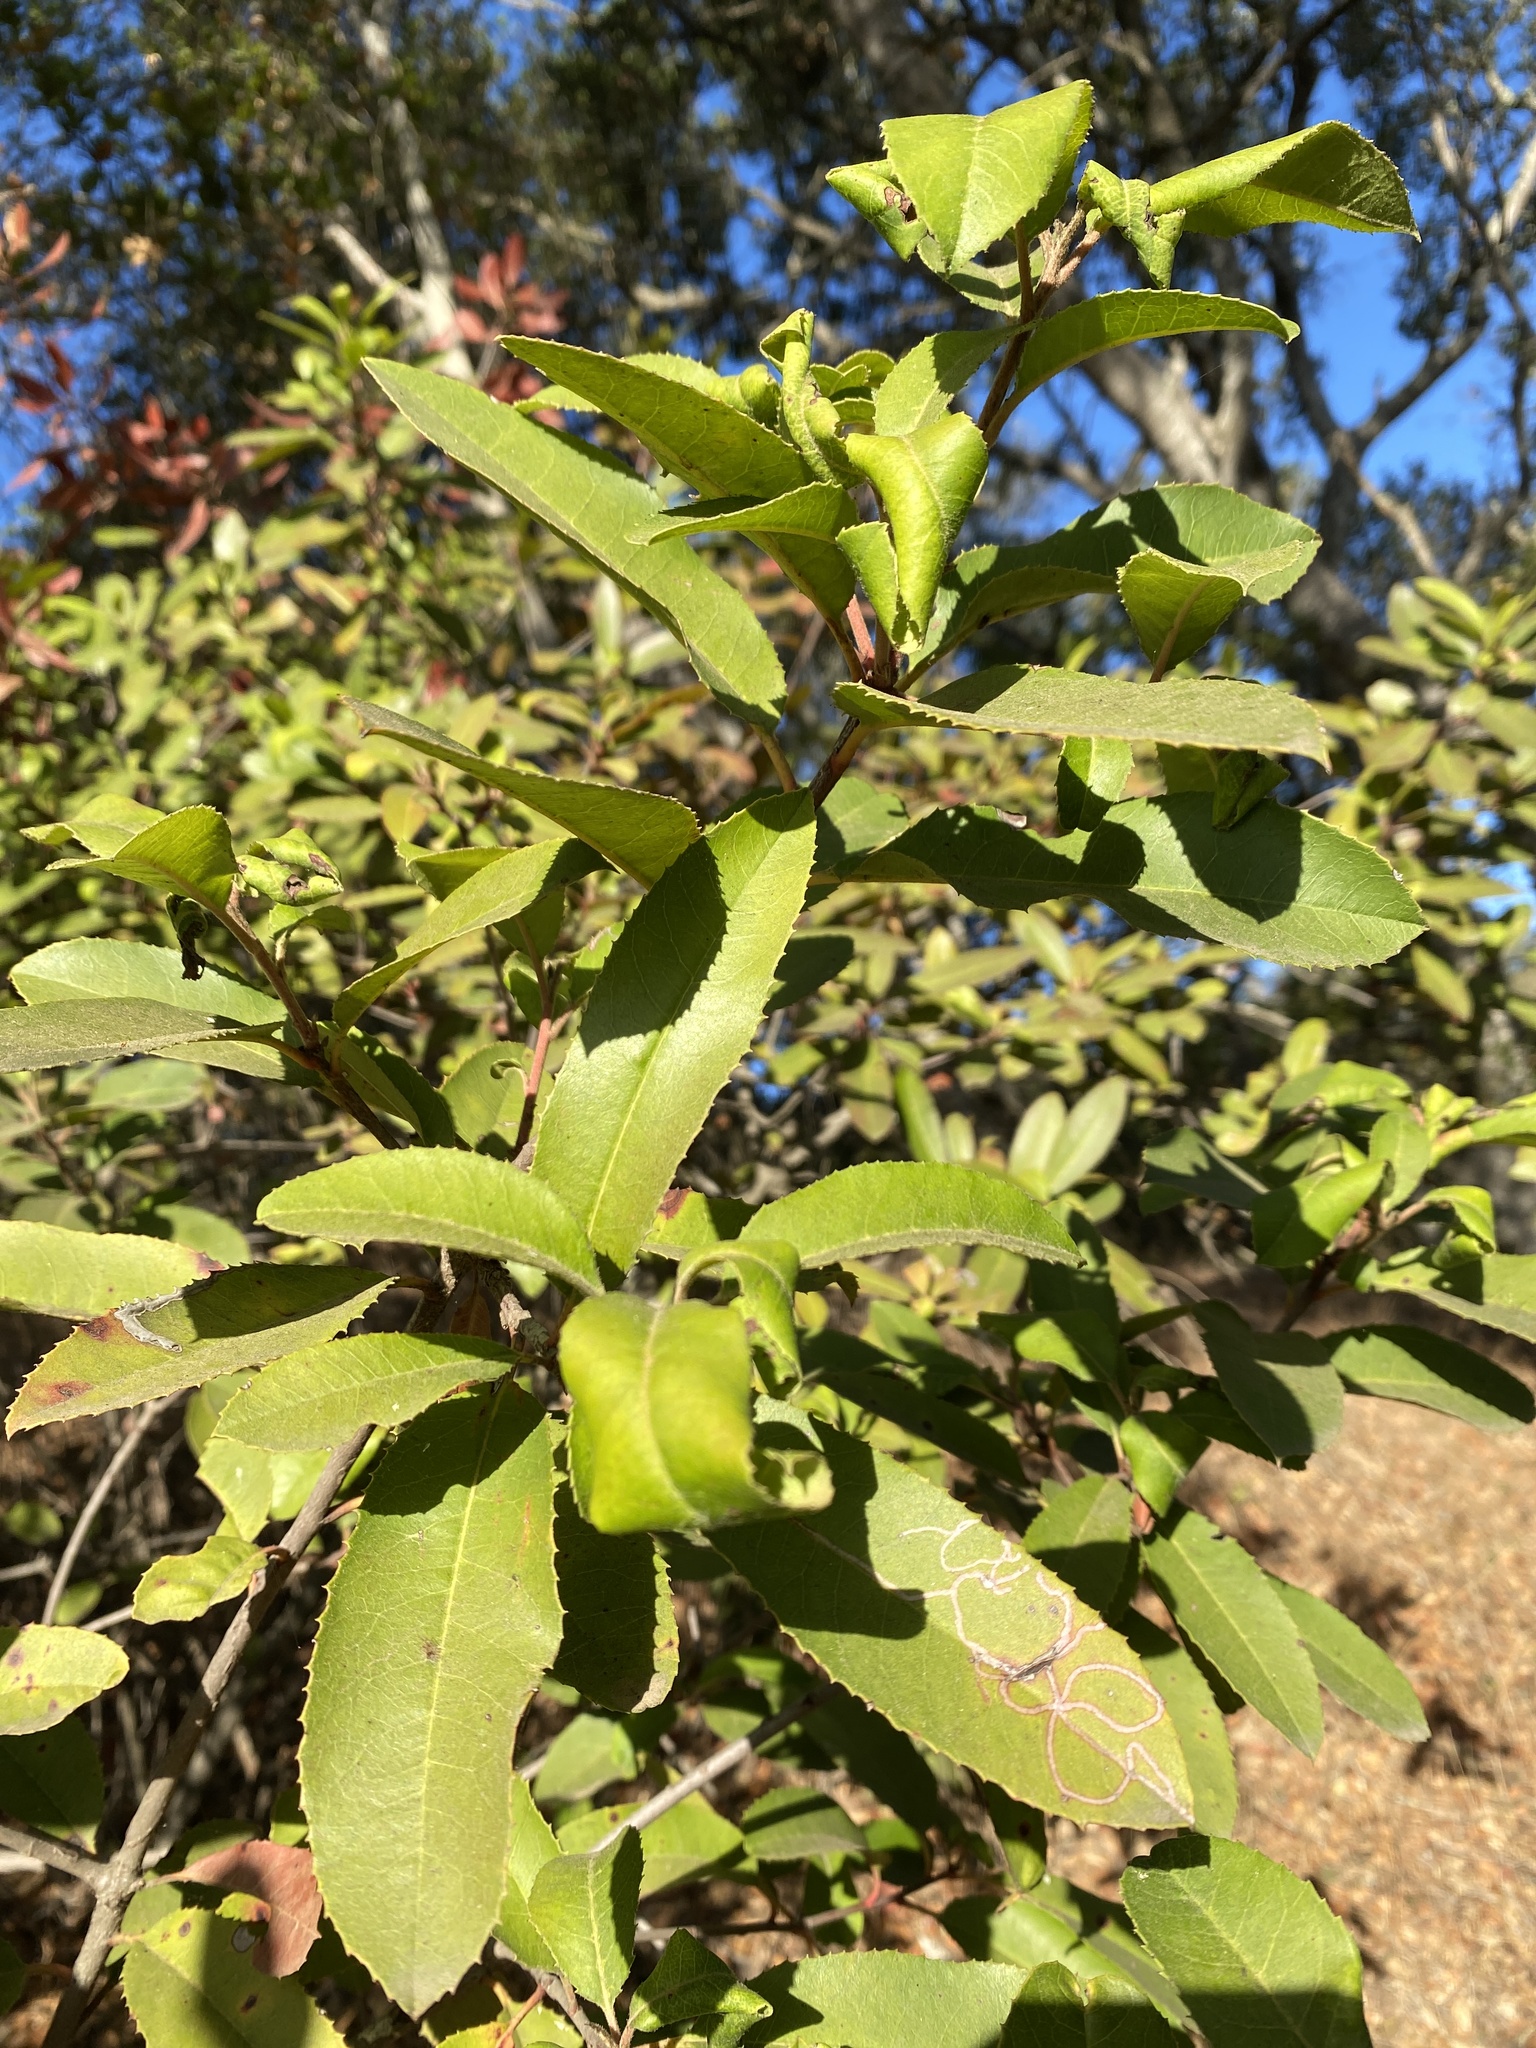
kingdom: Plantae
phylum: Tracheophyta
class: Magnoliopsida
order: Rosales
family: Rosaceae
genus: Heteromeles
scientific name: Heteromeles arbutifolia
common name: California-holly
